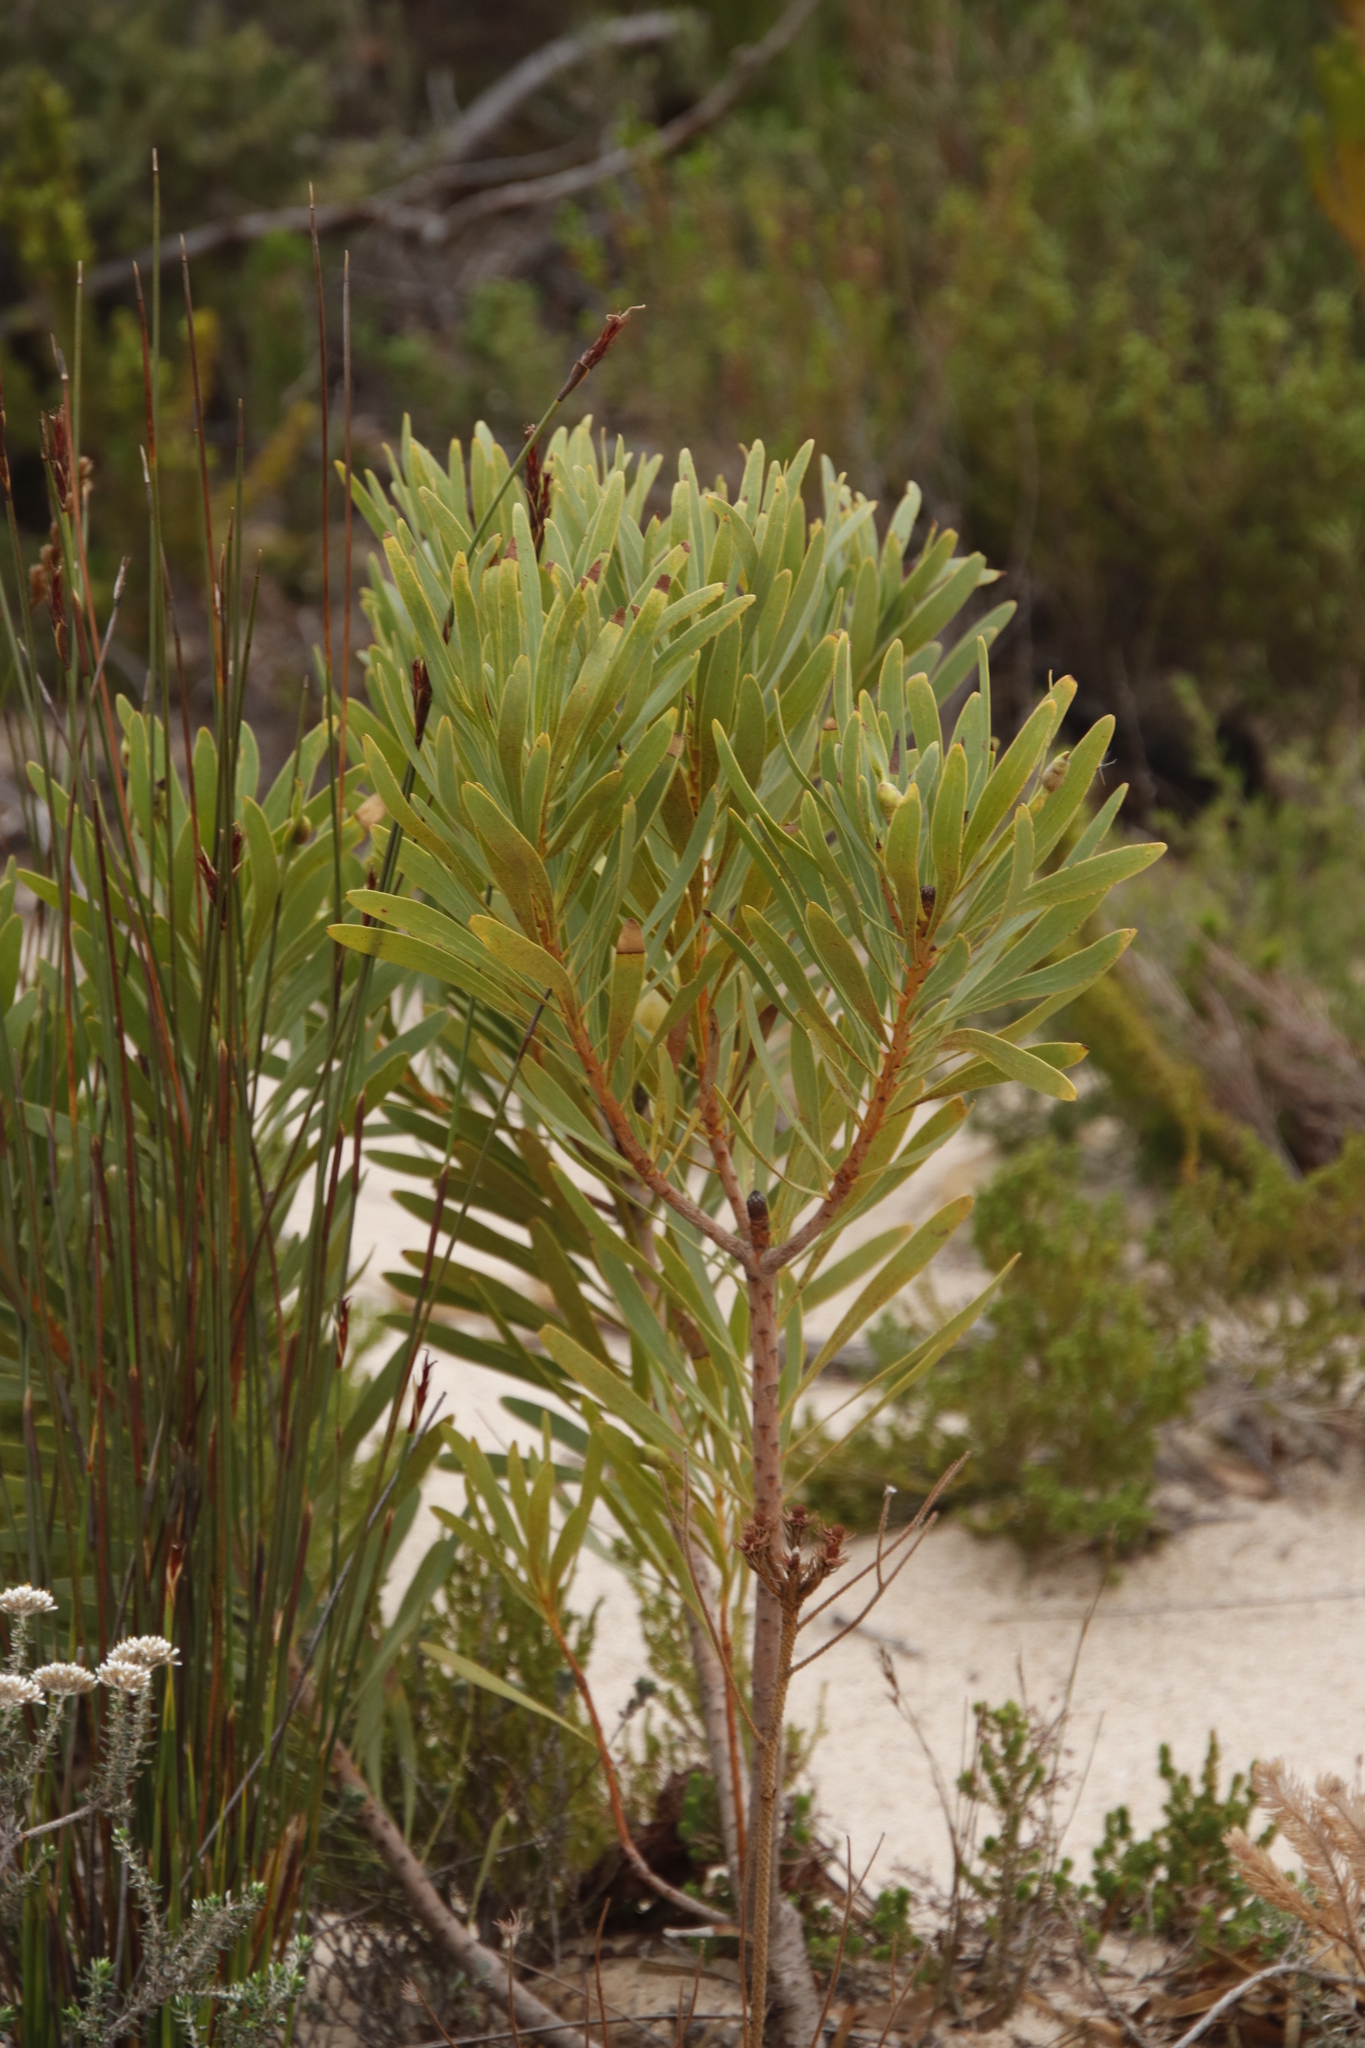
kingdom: Plantae
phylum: Tracheophyta
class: Magnoliopsida
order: Proteales
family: Proteaceae
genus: Protea
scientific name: Protea repens
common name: Sugarbush
